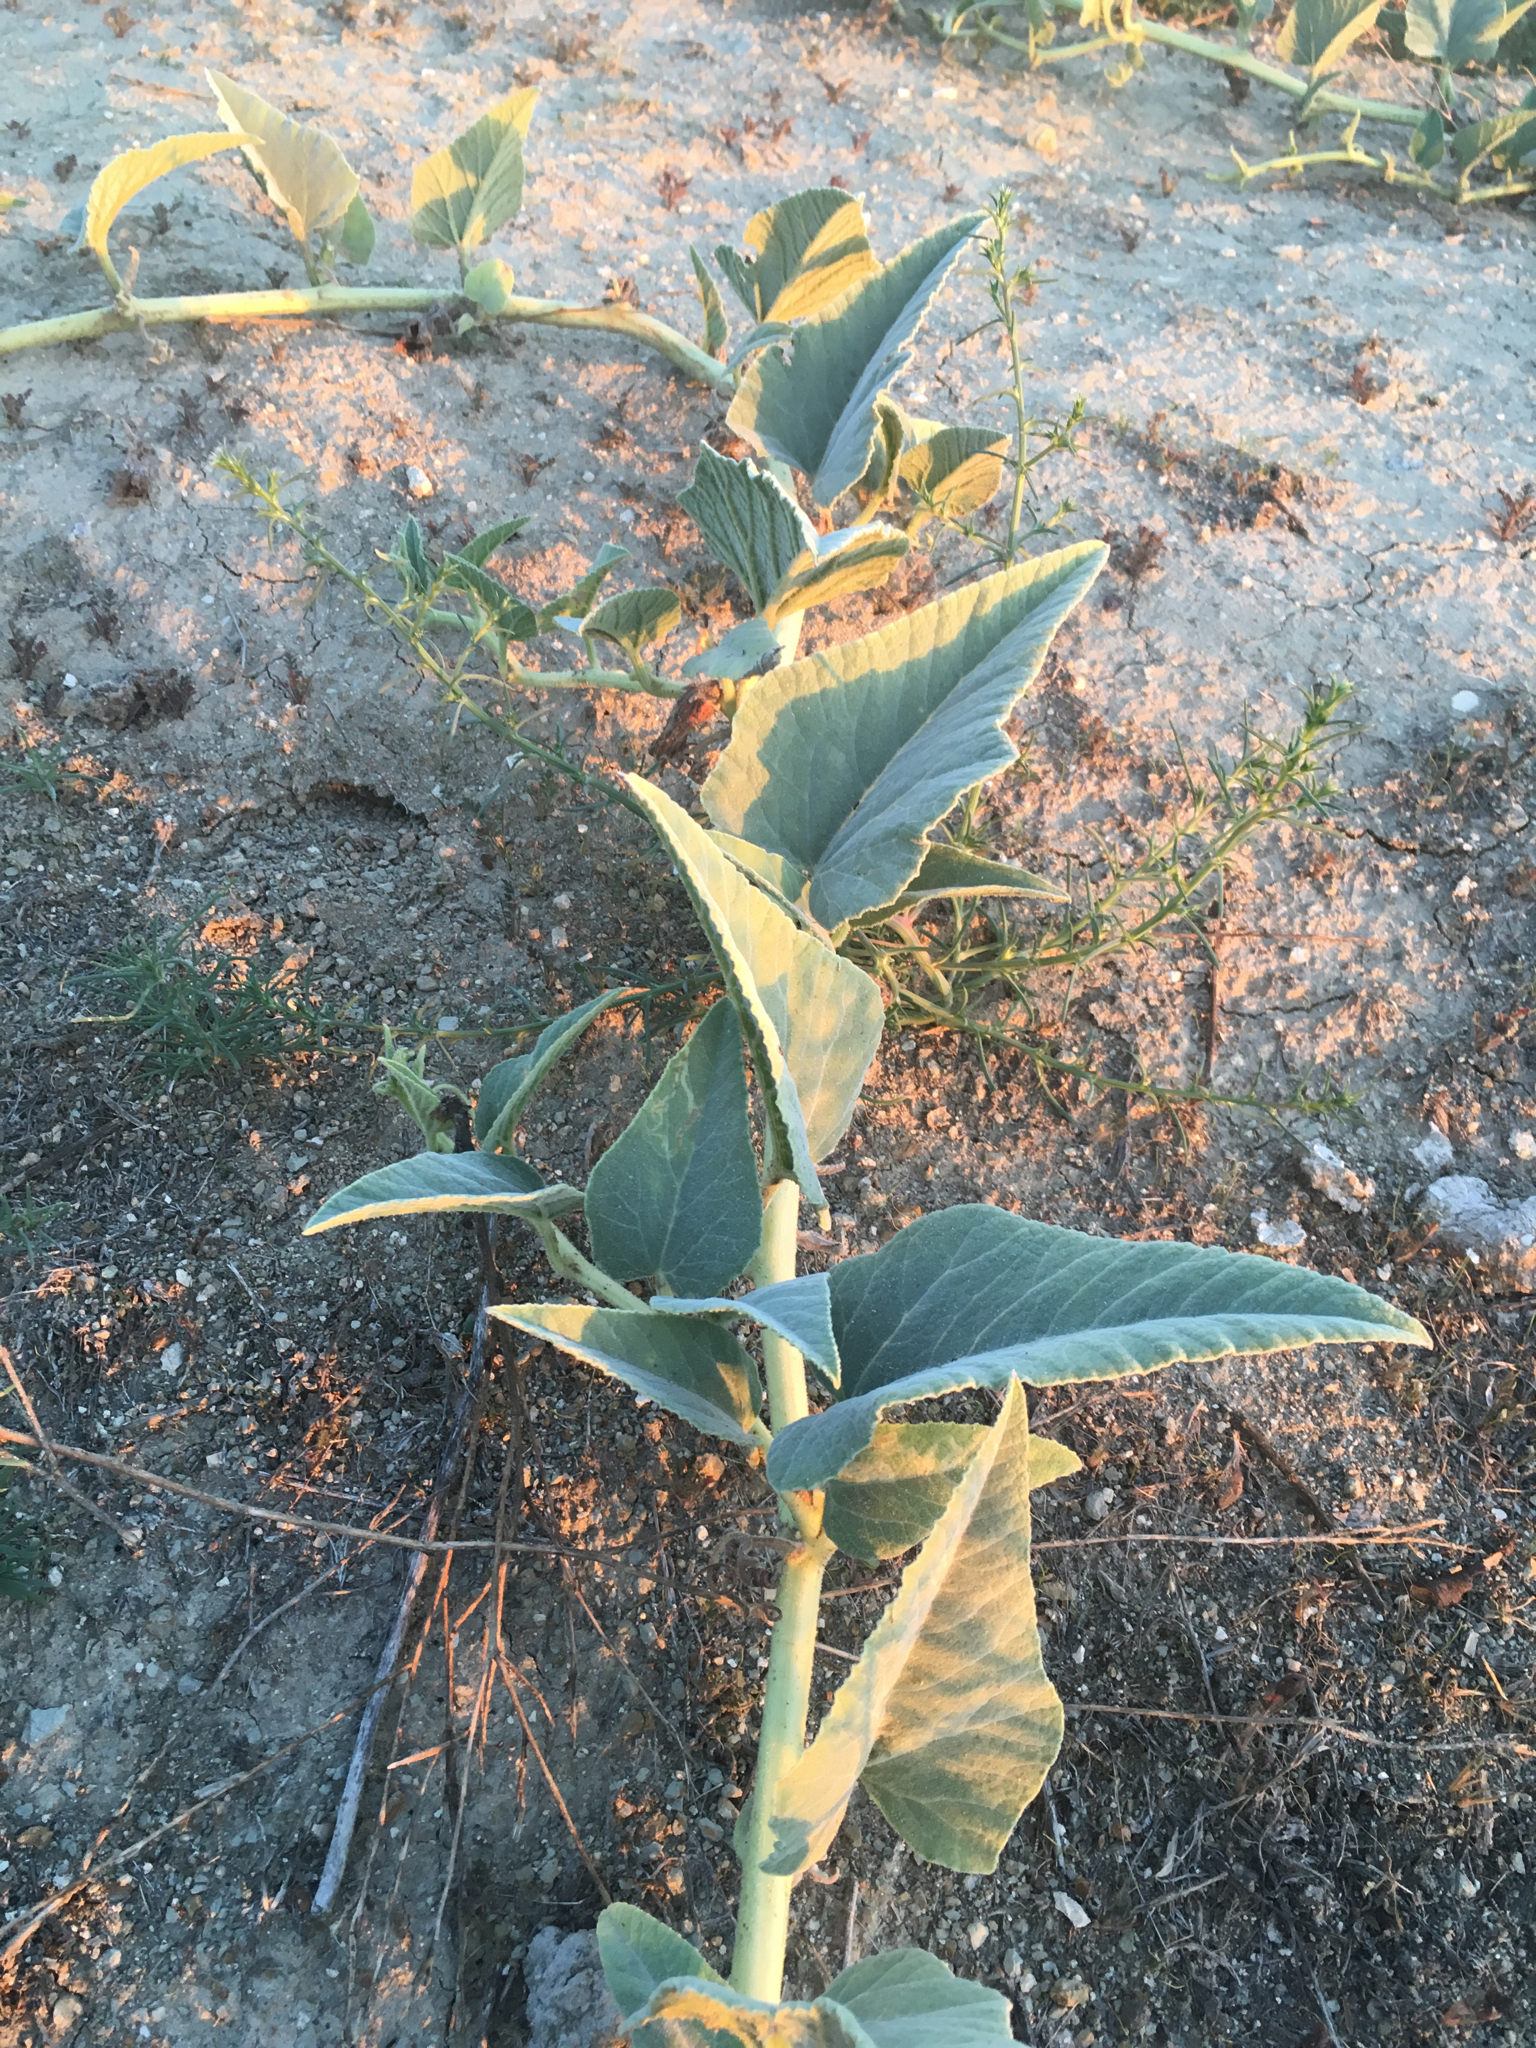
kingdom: Plantae
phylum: Tracheophyta
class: Magnoliopsida
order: Cucurbitales
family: Cucurbitaceae
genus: Cucurbita
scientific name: Cucurbita foetidissima
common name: Buffalo gourd
